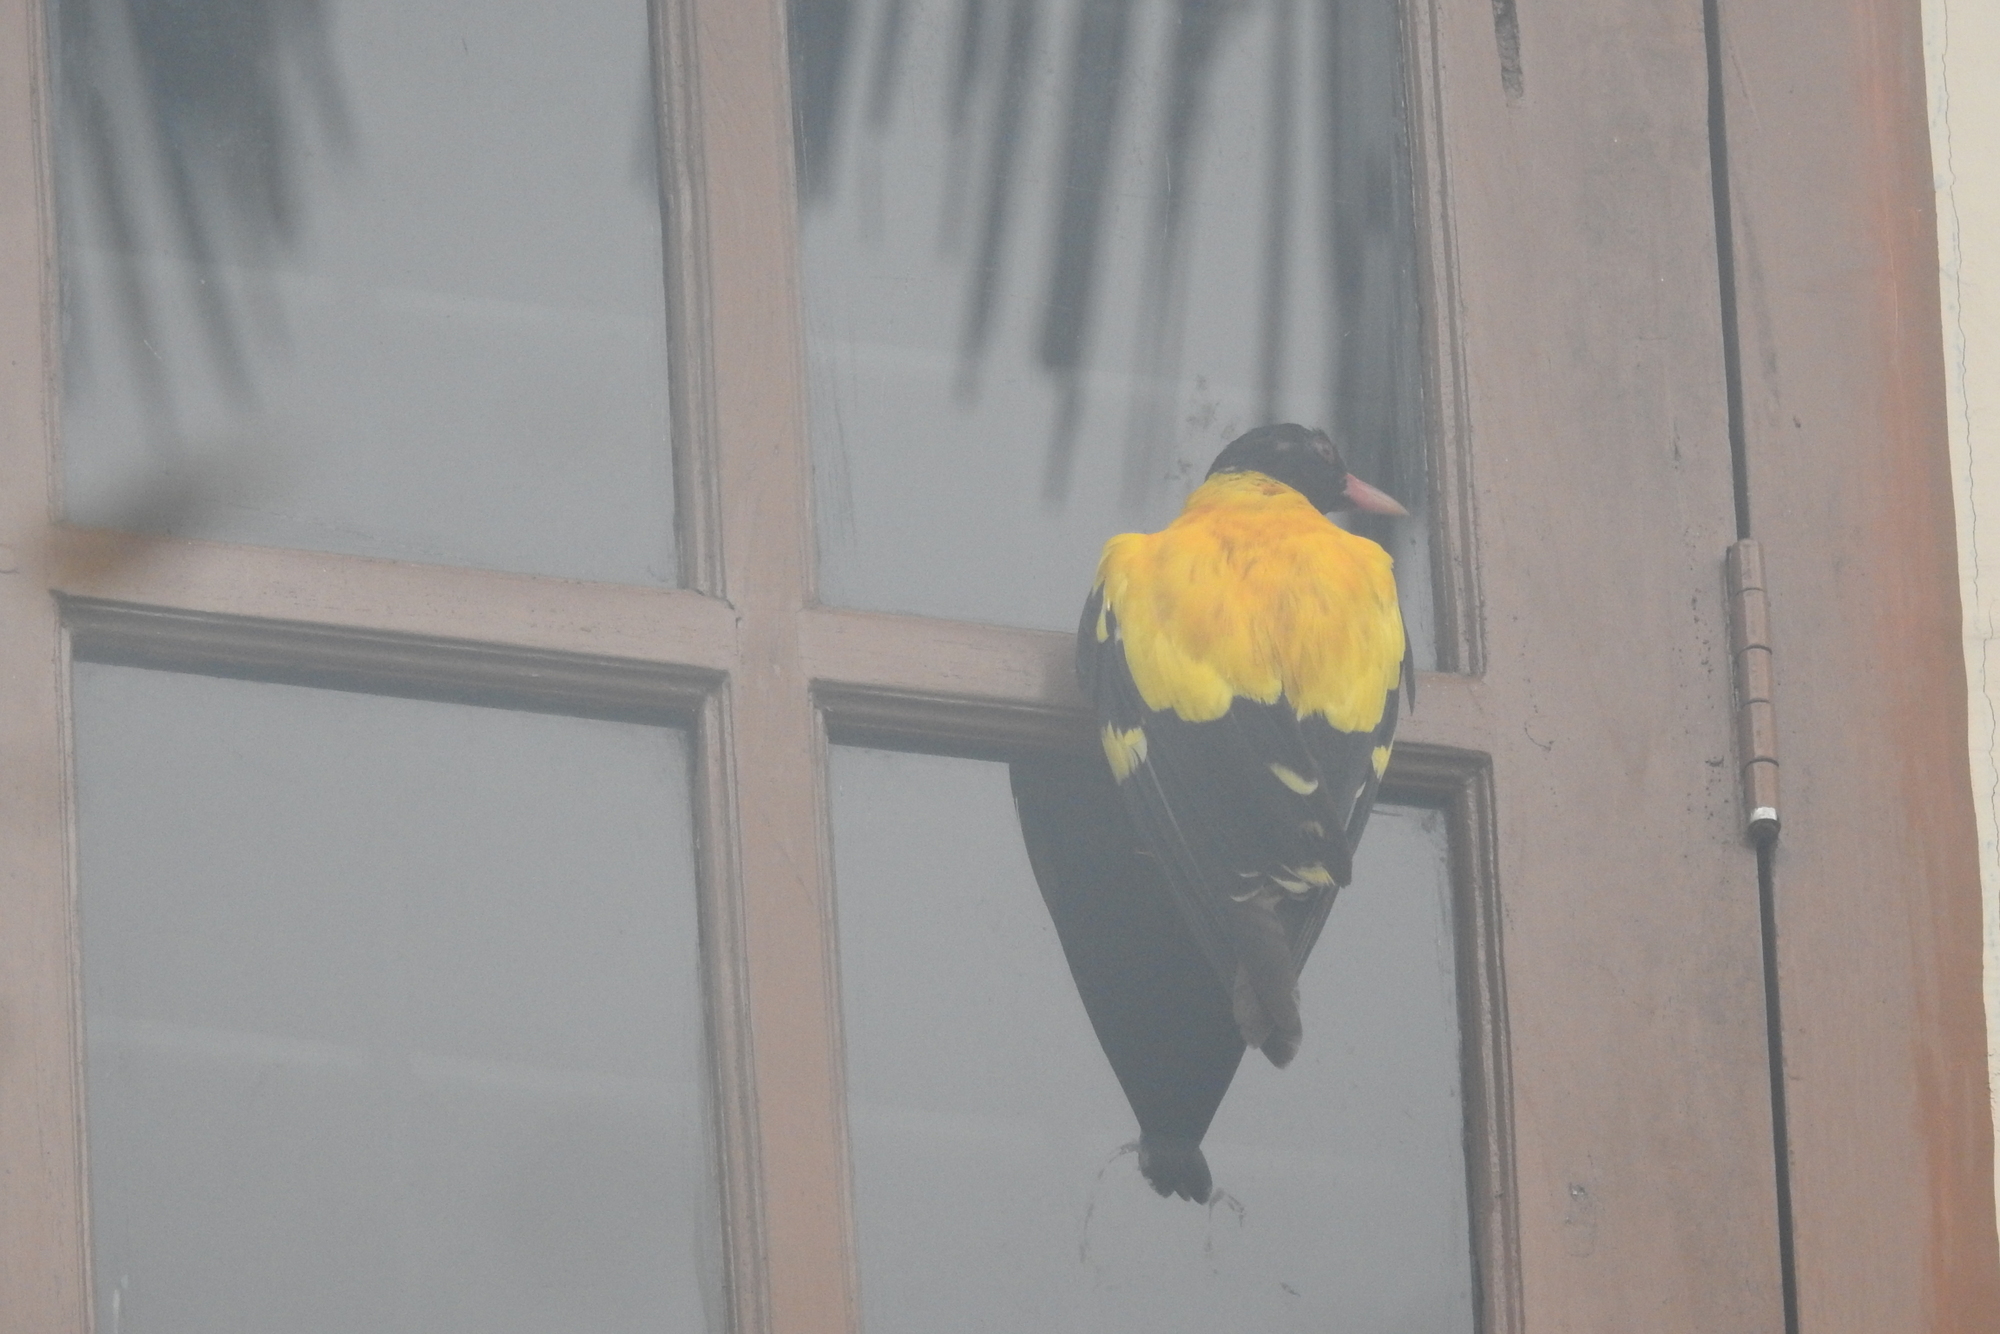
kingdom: Animalia
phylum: Chordata
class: Aves
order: Passeriformes
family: Oriolidae
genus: Oriolus
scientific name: Oriolus xanthornus
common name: Black-hooded oriole
